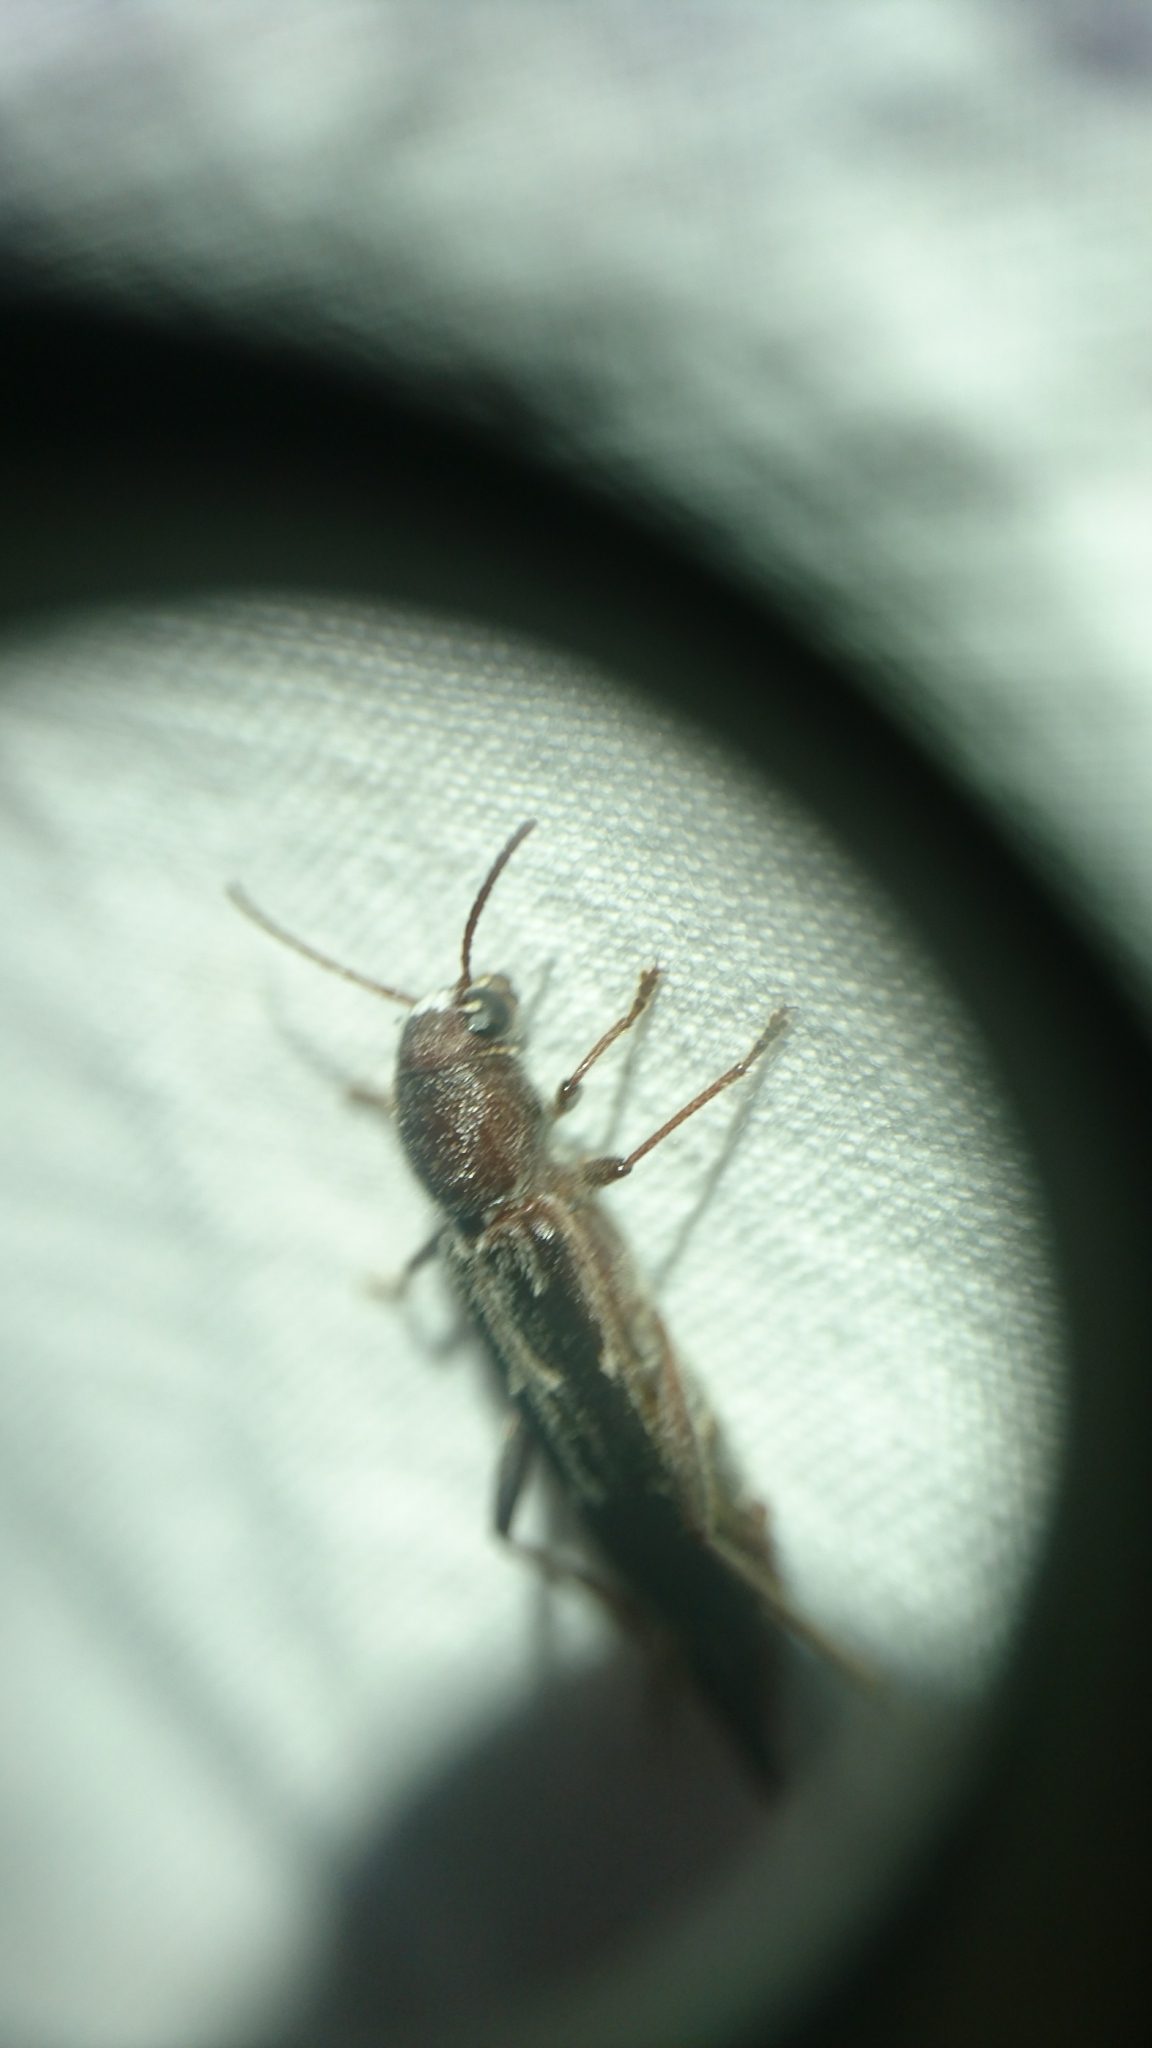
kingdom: Animalia
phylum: Arthropoda
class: Insecta
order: Coleoptera
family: Cerambycidae
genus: Xylotrechus
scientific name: Xylotrechus sagittatus
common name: Arrowhead borer
